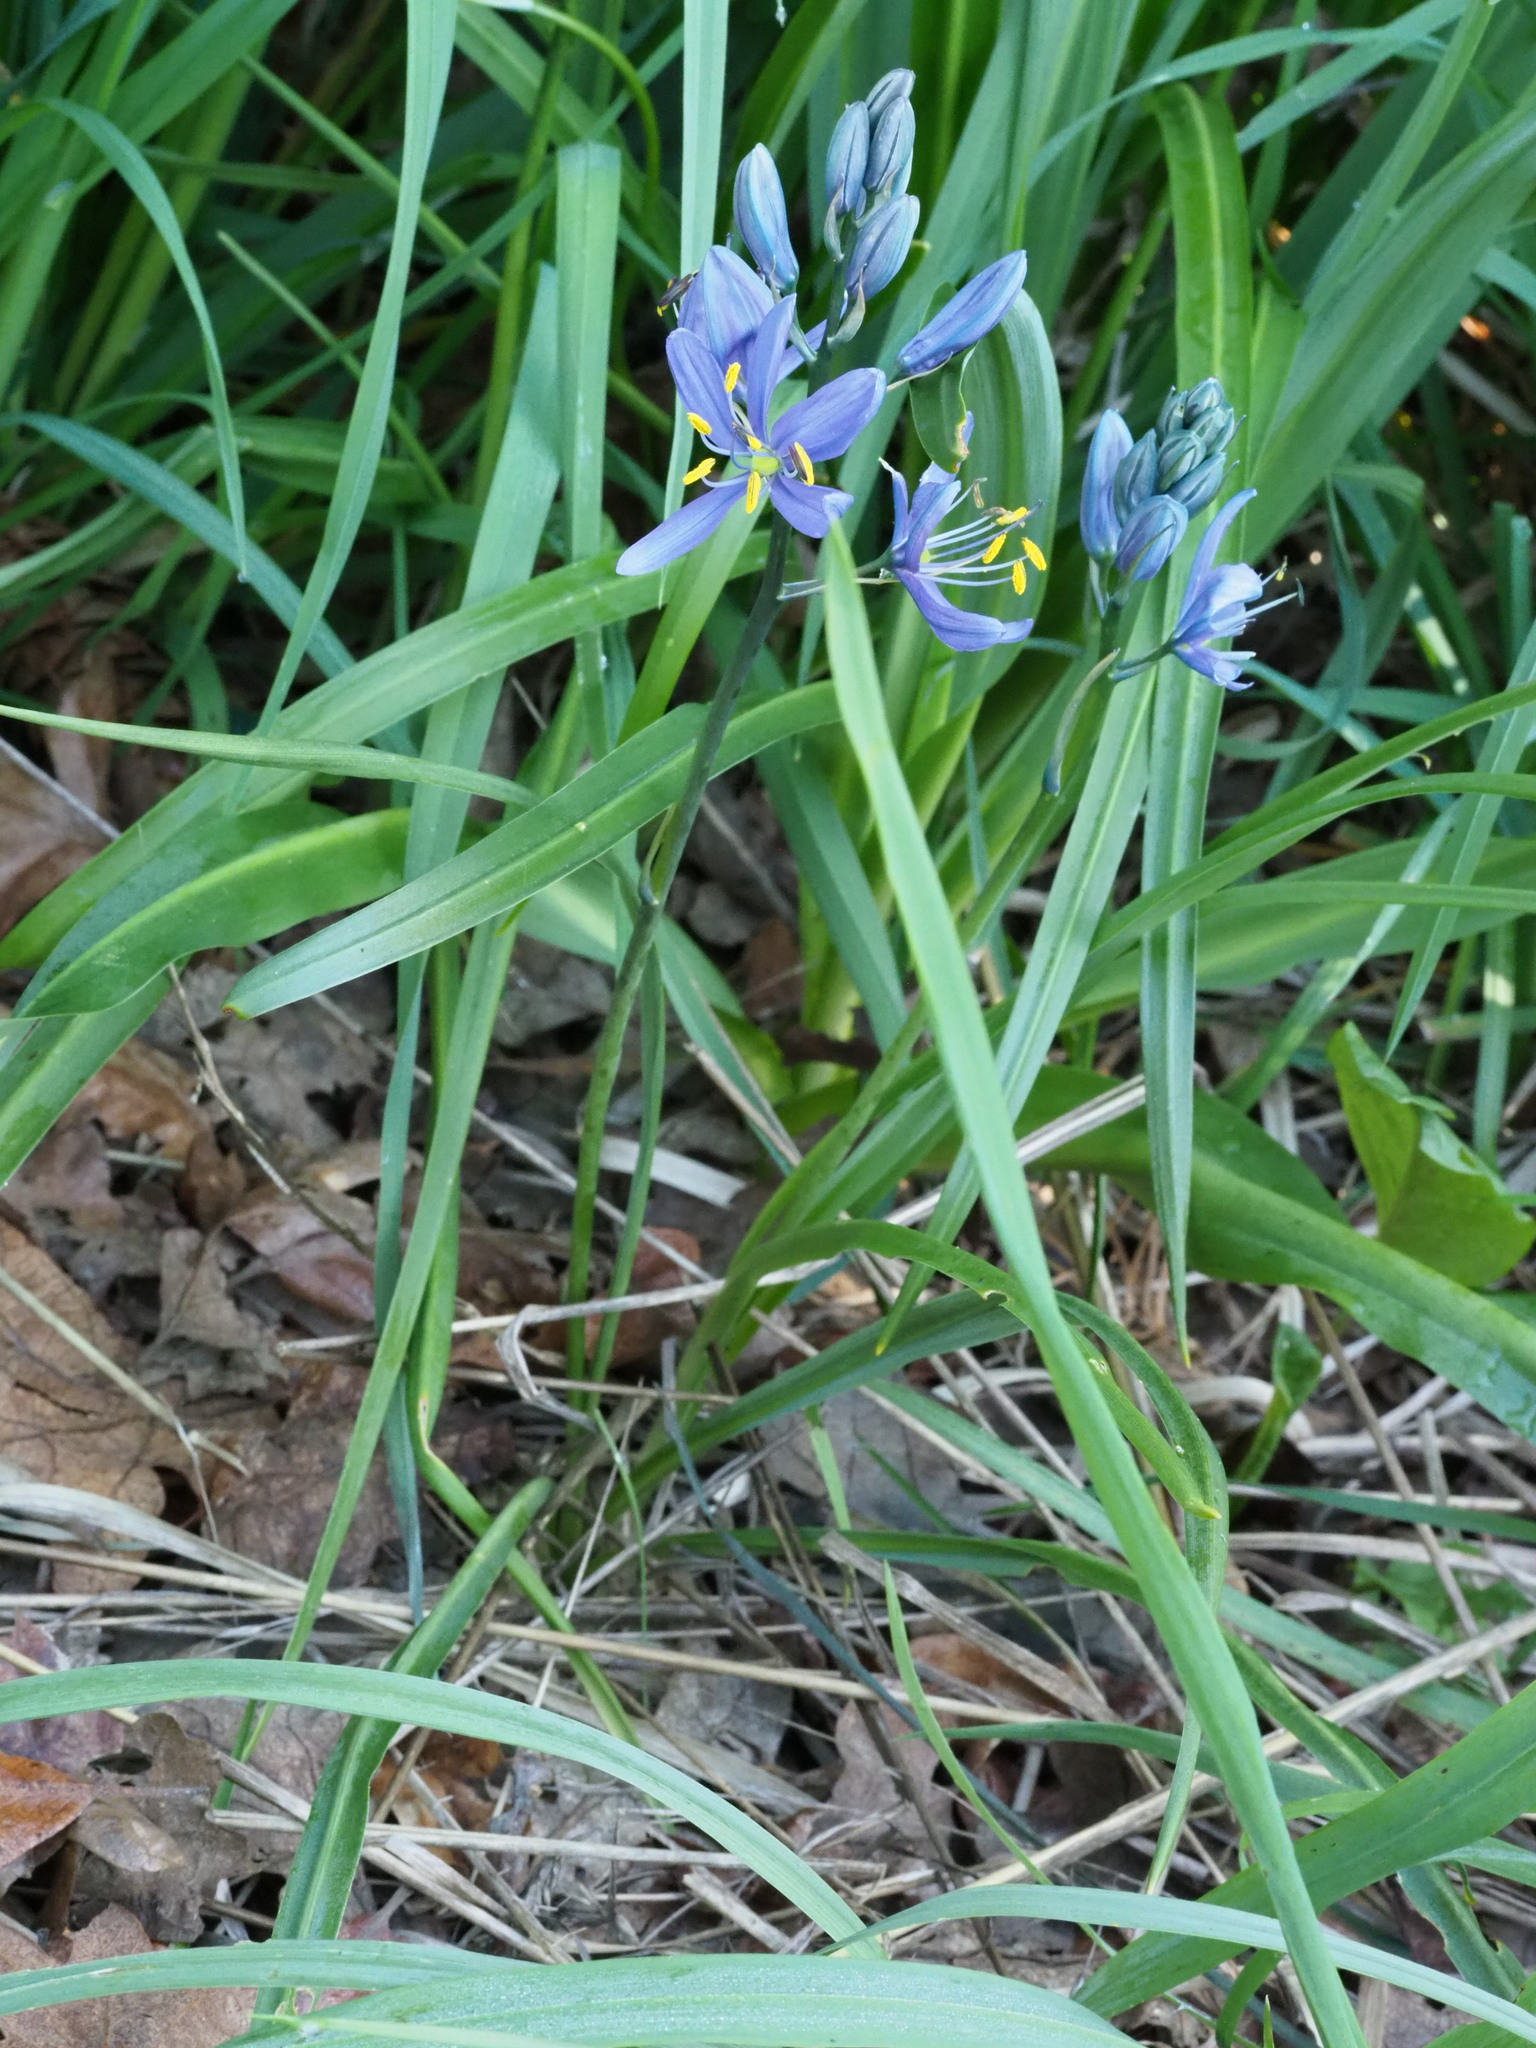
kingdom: Plantae
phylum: Tracheophyta
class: Liliopsida
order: Asparagales
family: Asparagaceae
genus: Camassia
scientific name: Camassia quamash
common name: Common camas
